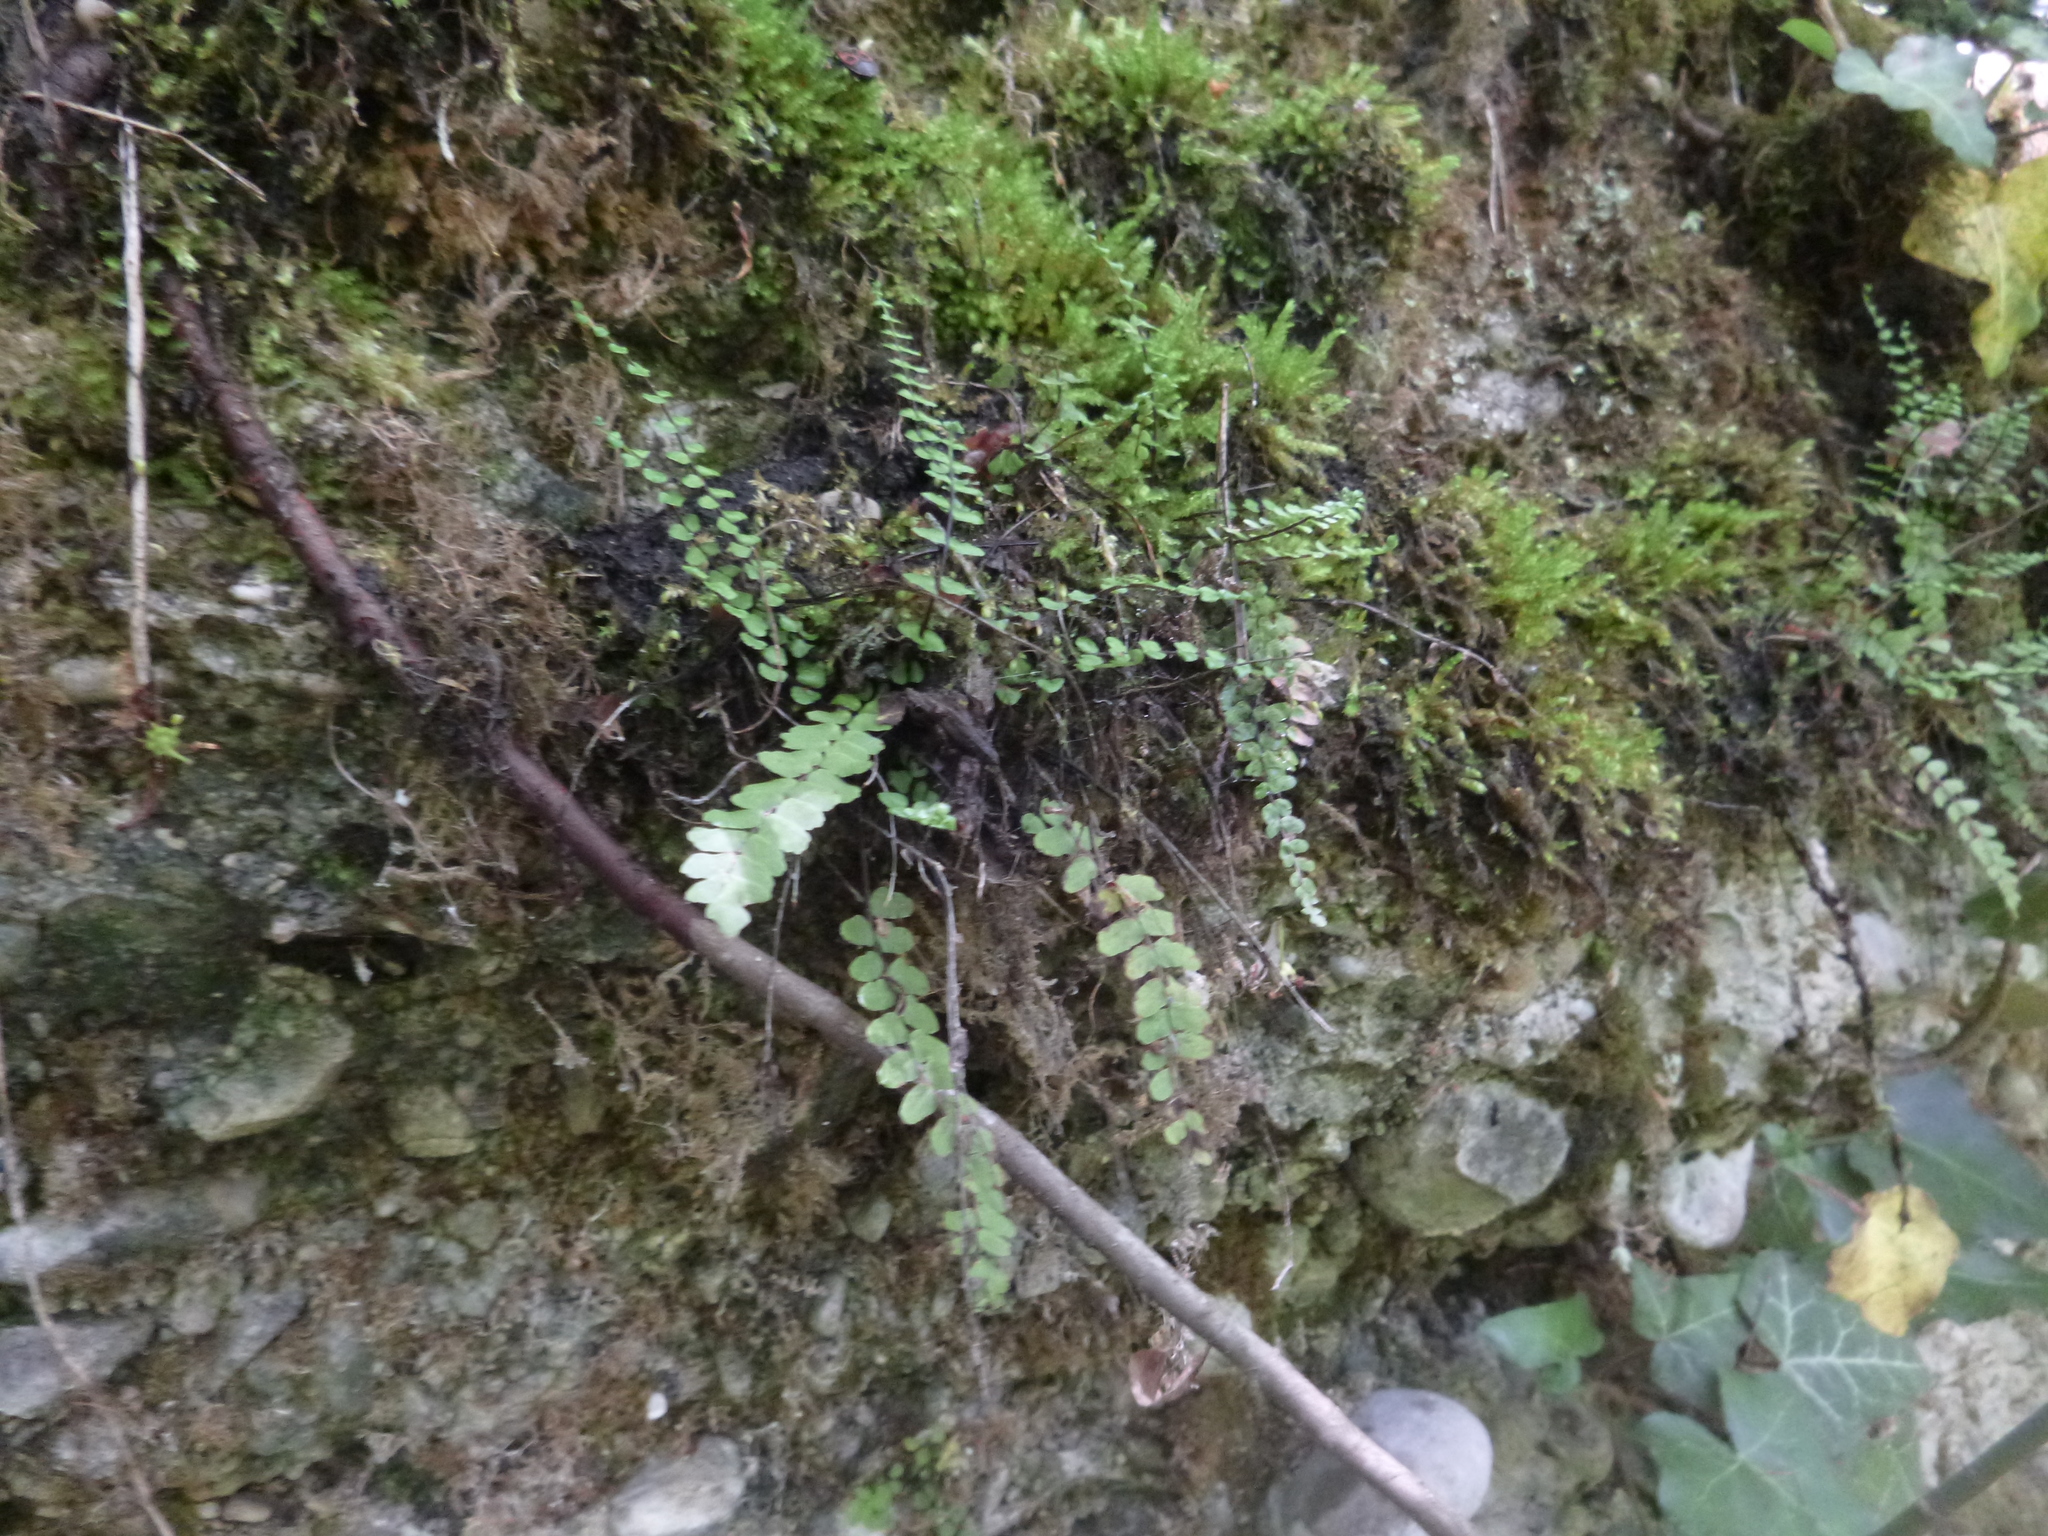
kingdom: Plantae
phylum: Tracheophyta
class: Polypodiopsida
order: Polypodiales
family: Aspleniaceae
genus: Asplenium
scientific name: Asplenium trichomanes
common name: Maidenhair spleenwort
